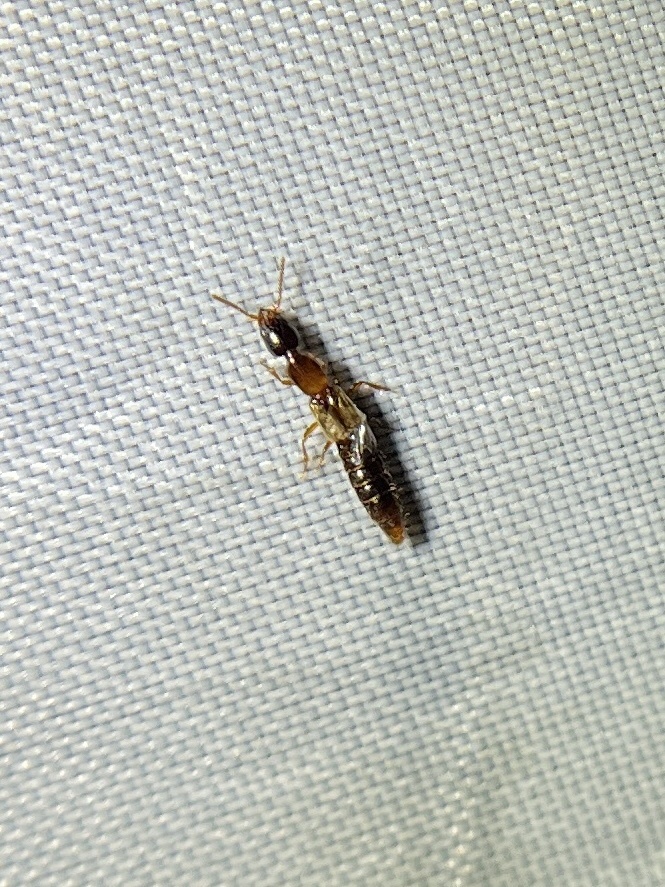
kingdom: Animalia
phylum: Arthropoda
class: Insecta
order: Hemiptera
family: Rhyparochromidae
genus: Neopamera
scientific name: Neopamera bilobata
